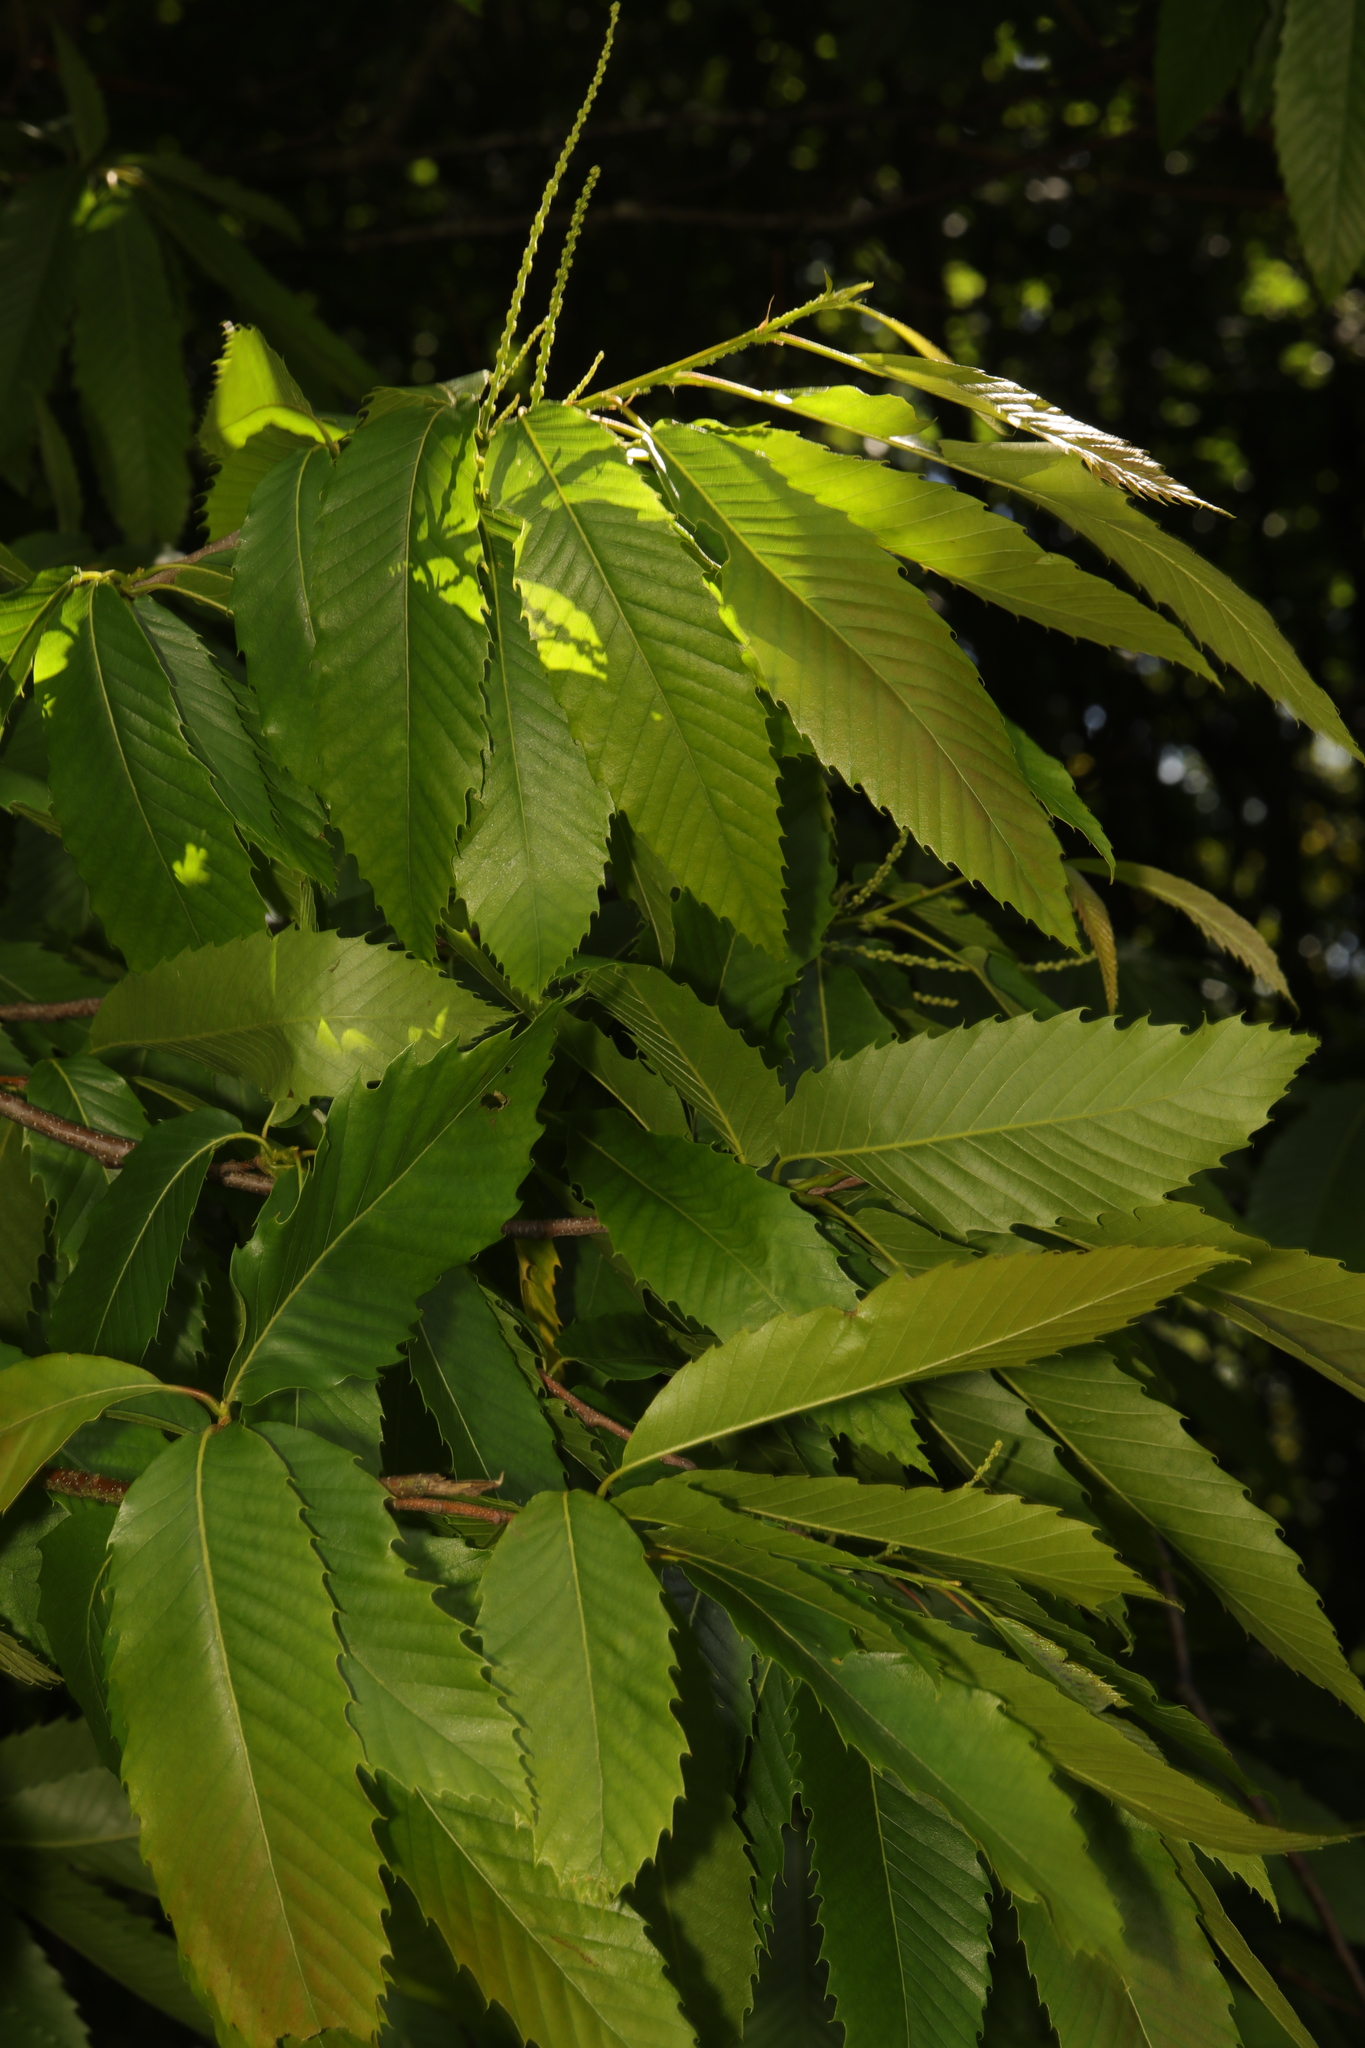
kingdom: Plantae
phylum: Tracheophyta
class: Magnoliopsida
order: Fagales
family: Fagaceae
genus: Castanea
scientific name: Castanea sativa
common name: Sweet chestnut
